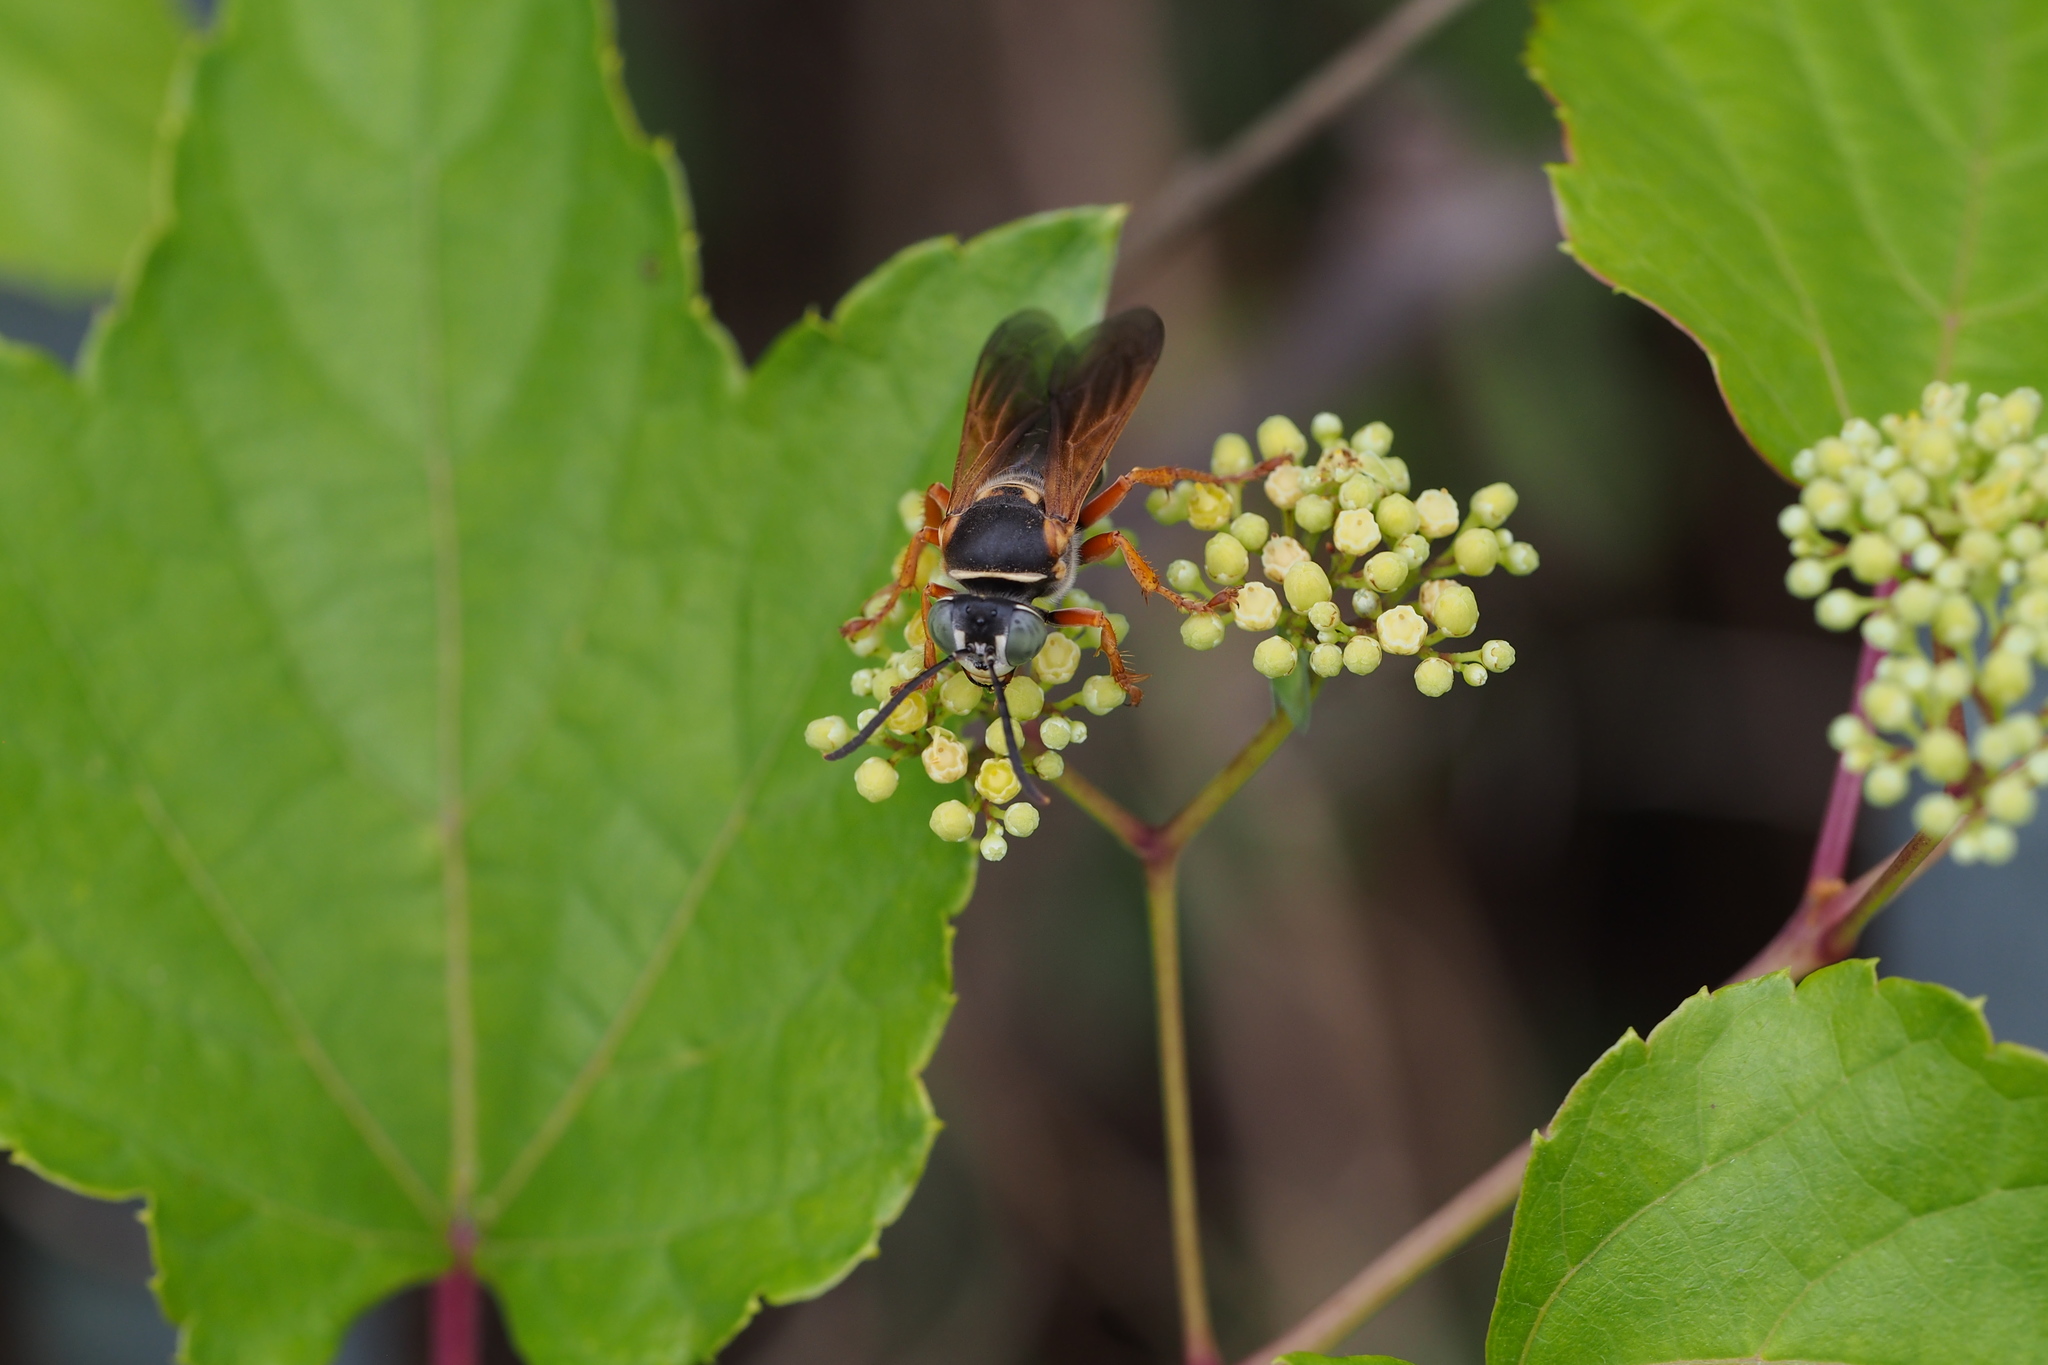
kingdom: Animalia
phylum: Arthropoda
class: Insecta
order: Hymenoptera
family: Crabronidae
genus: Stizus
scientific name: Stizus perrisi
